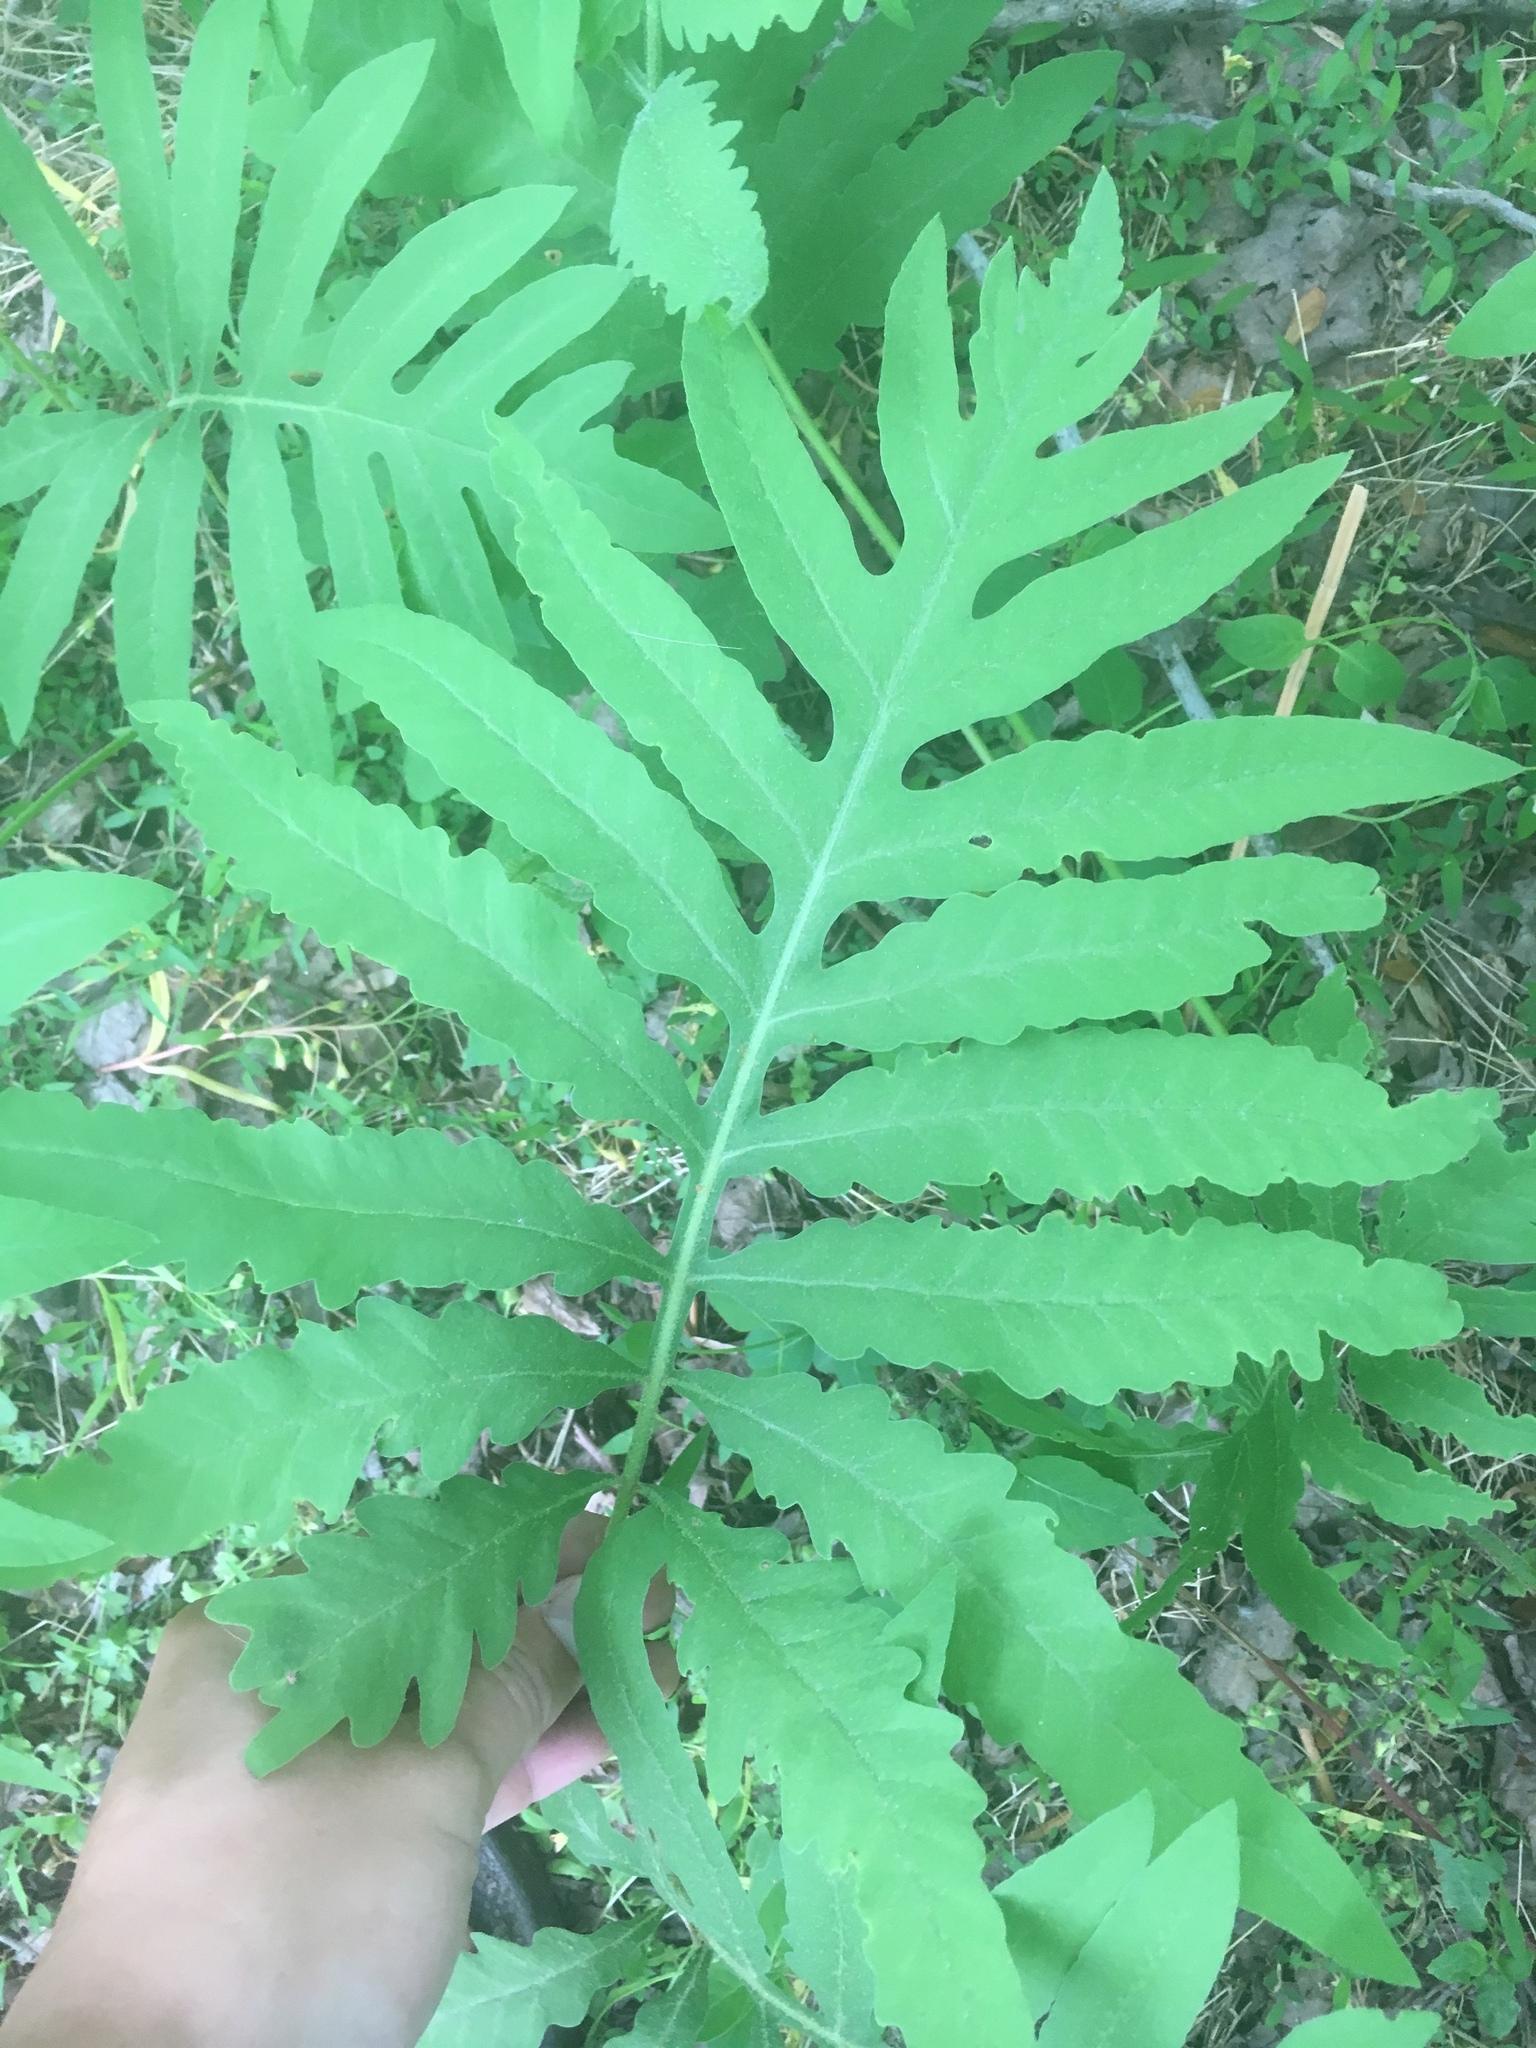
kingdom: Plantae
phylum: Tracheophyta
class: Polypodiopsida
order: Polypodiales
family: Onocleaceae
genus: Onoclea
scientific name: Onoclea sensibilis
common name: Sensitive fern
